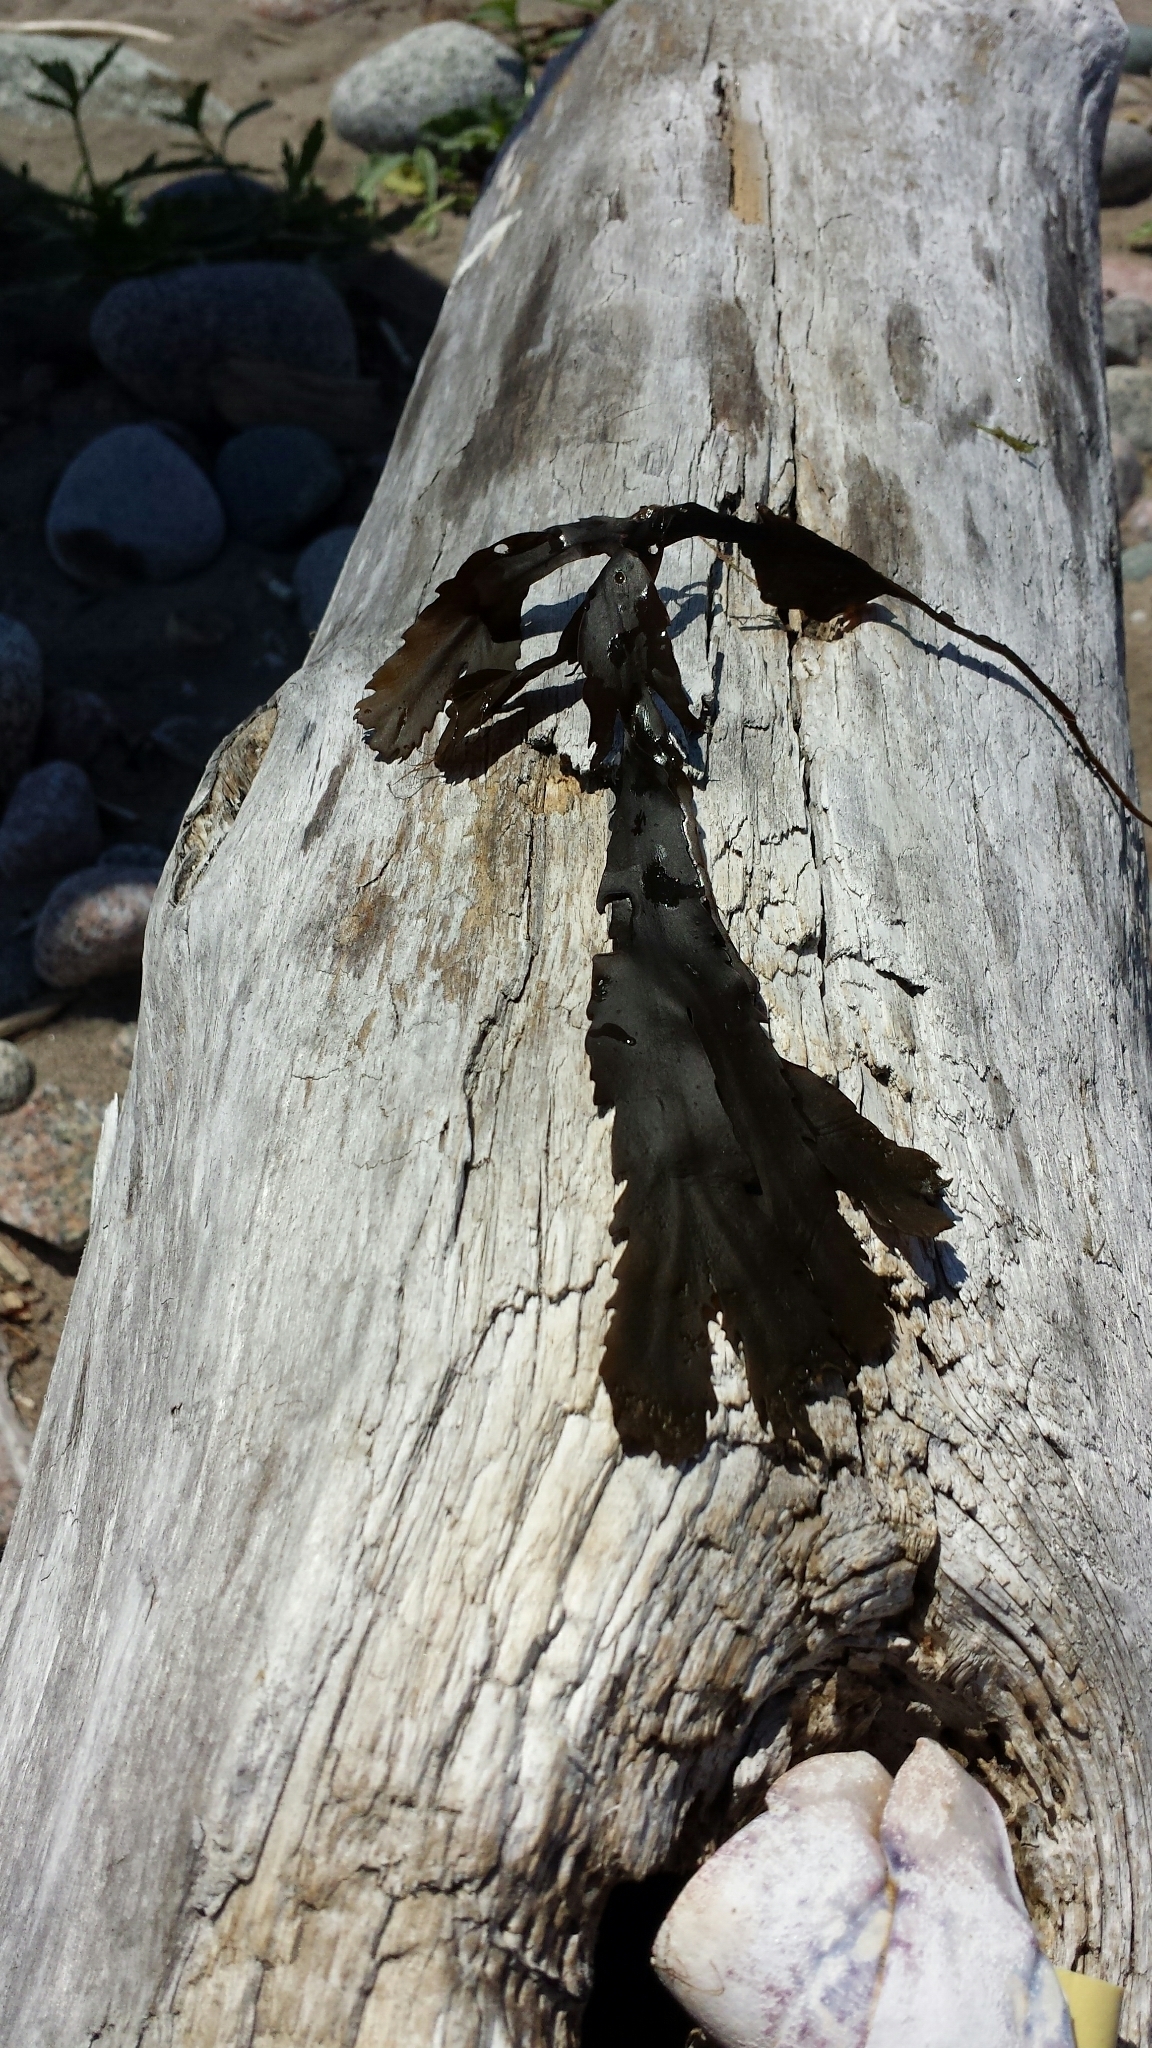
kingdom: Chromista
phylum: Ochrophyta
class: Phaeophyceae
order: Fucales
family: Fucaceae
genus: Fucus
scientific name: Fucus serratus
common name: Toothed wrack
